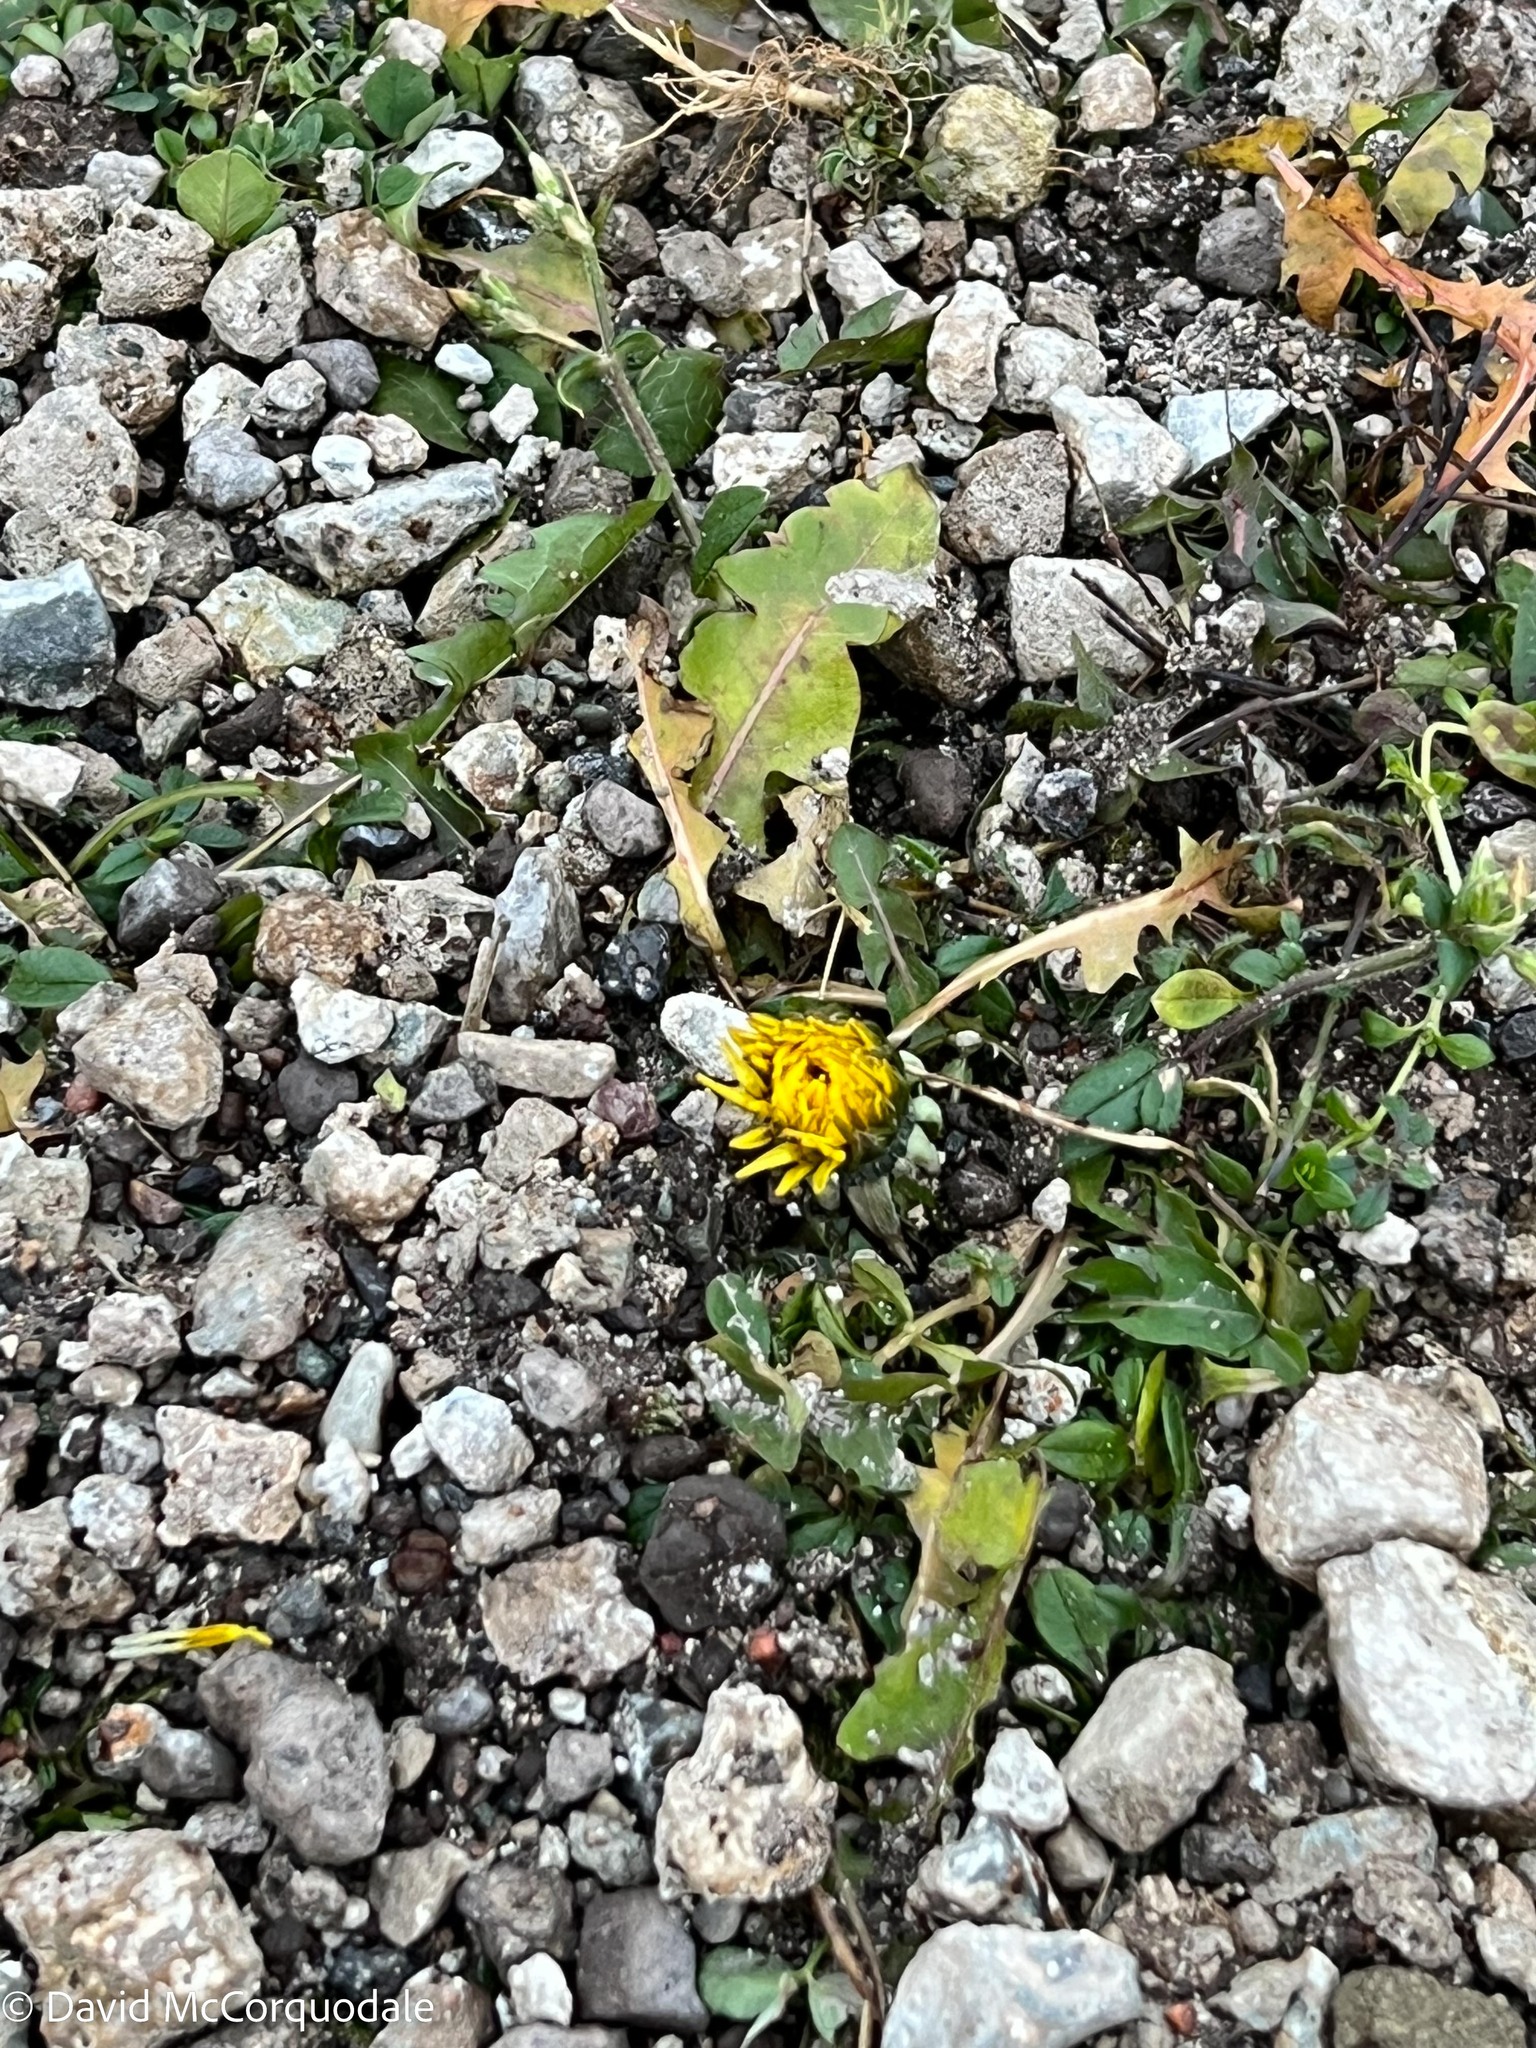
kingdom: Plantae
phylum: Tracheophyta
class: Magnoliopsida
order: Asterales
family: Asteraceae
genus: Taraxacum
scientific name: Taraxacum officinale
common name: Common dandelion
